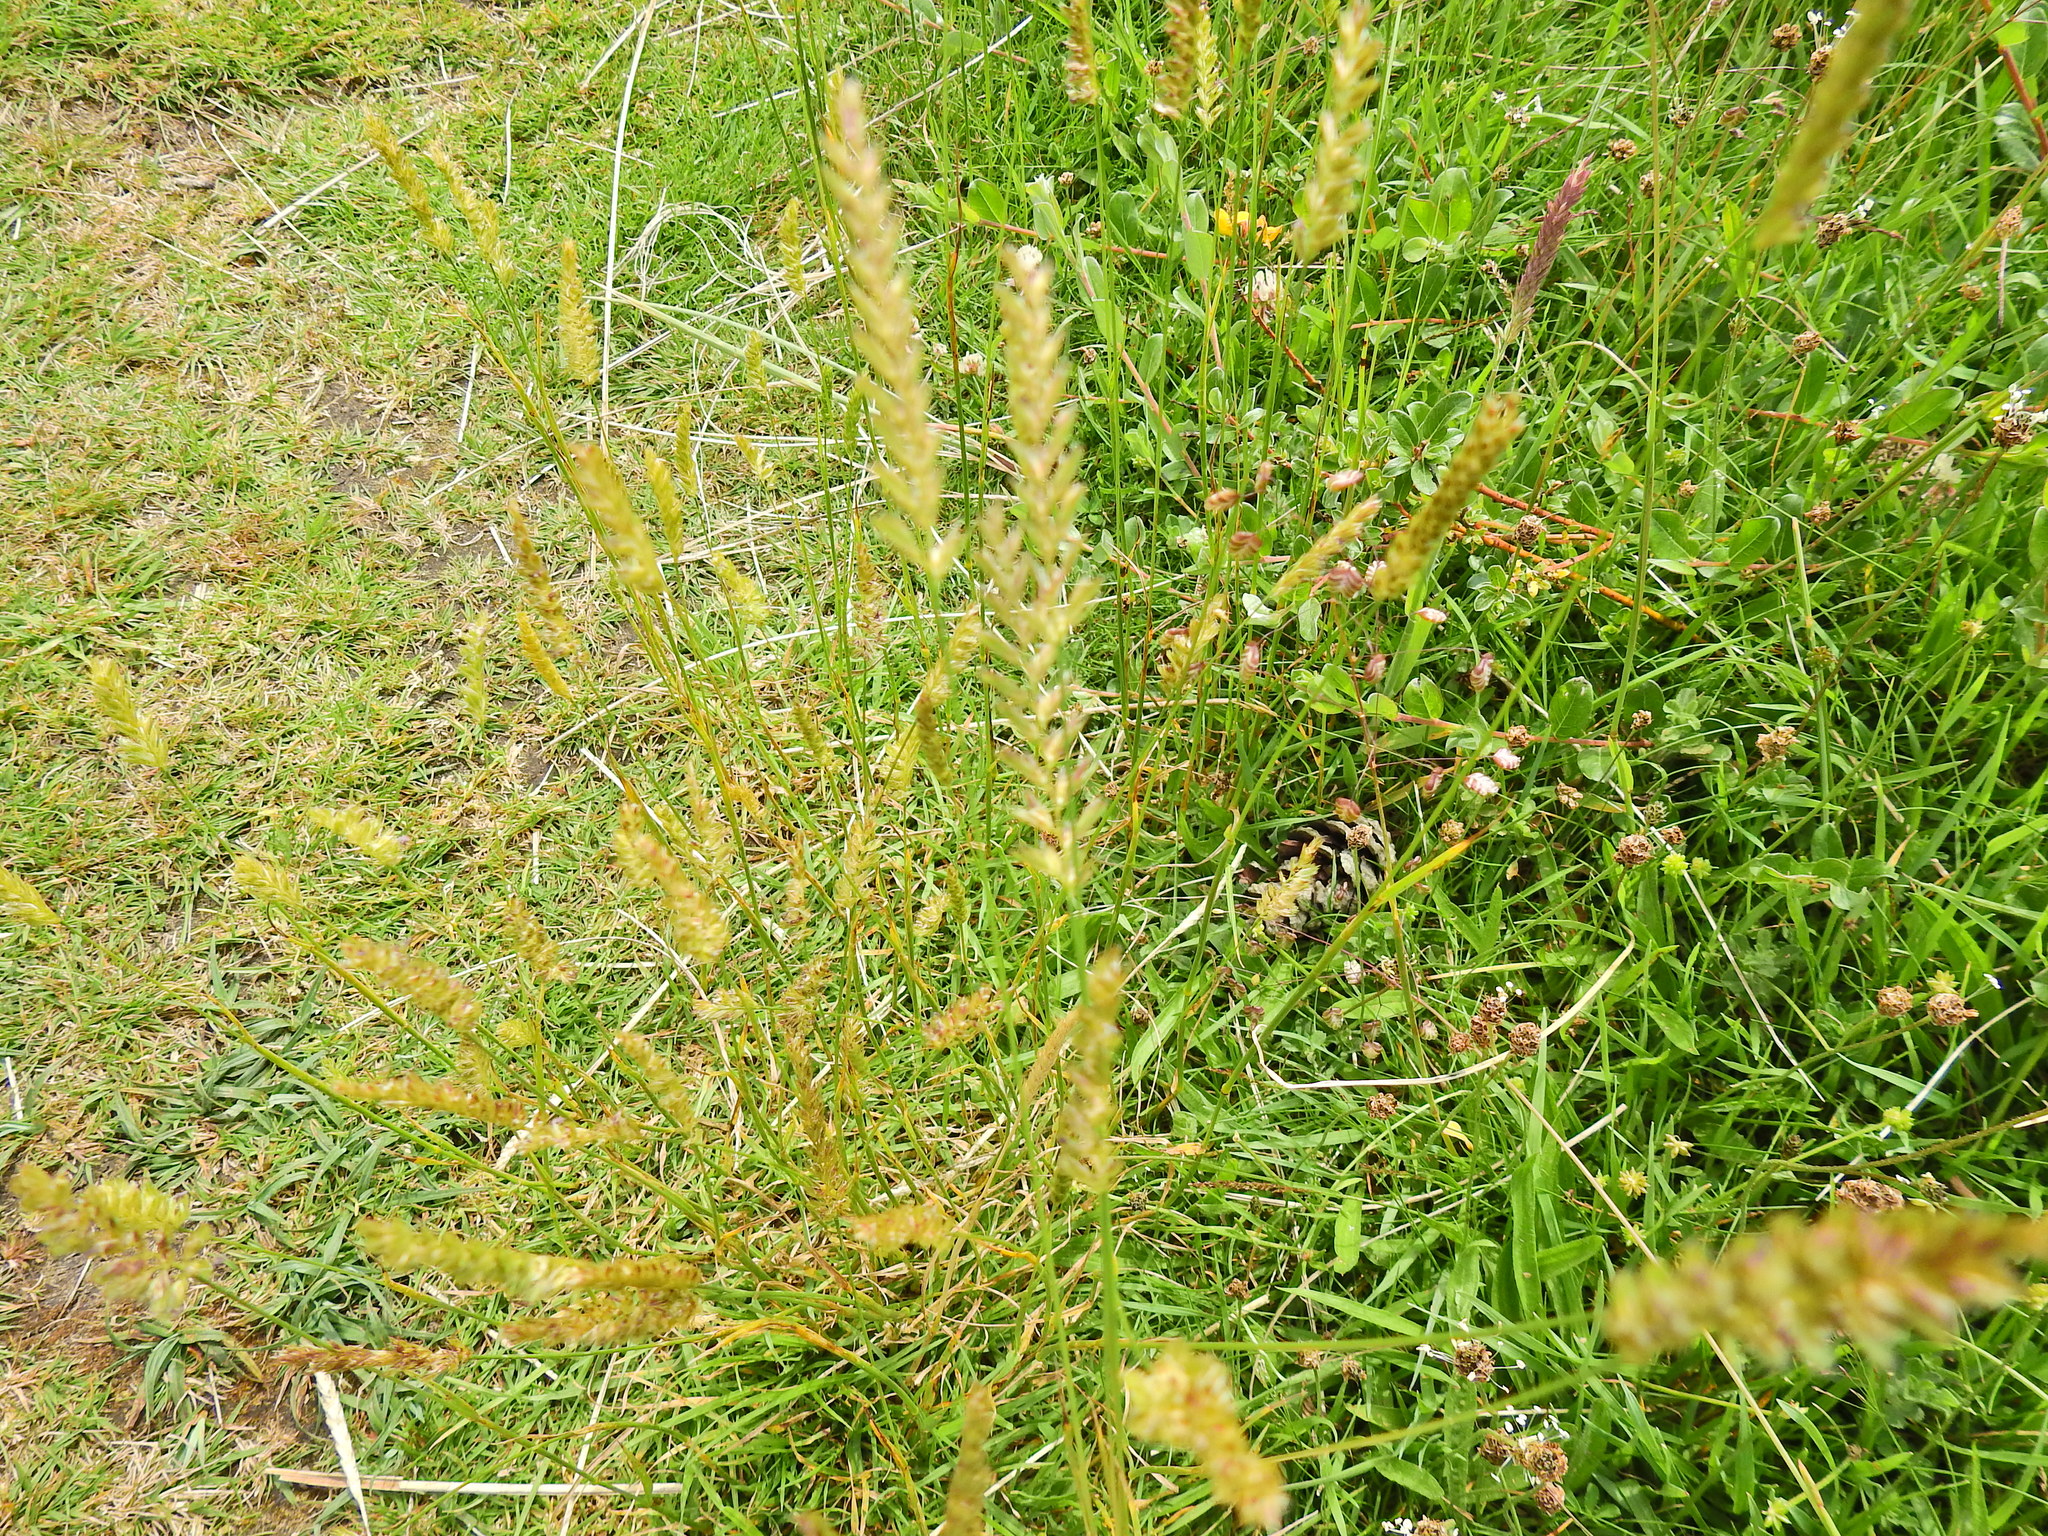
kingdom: Plantae
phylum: Tracheophyta
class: Liliopsida
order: Poales
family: Poaceae
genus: Cynosurus
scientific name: Cynosurus cristatus
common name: Crested dog's-tail
